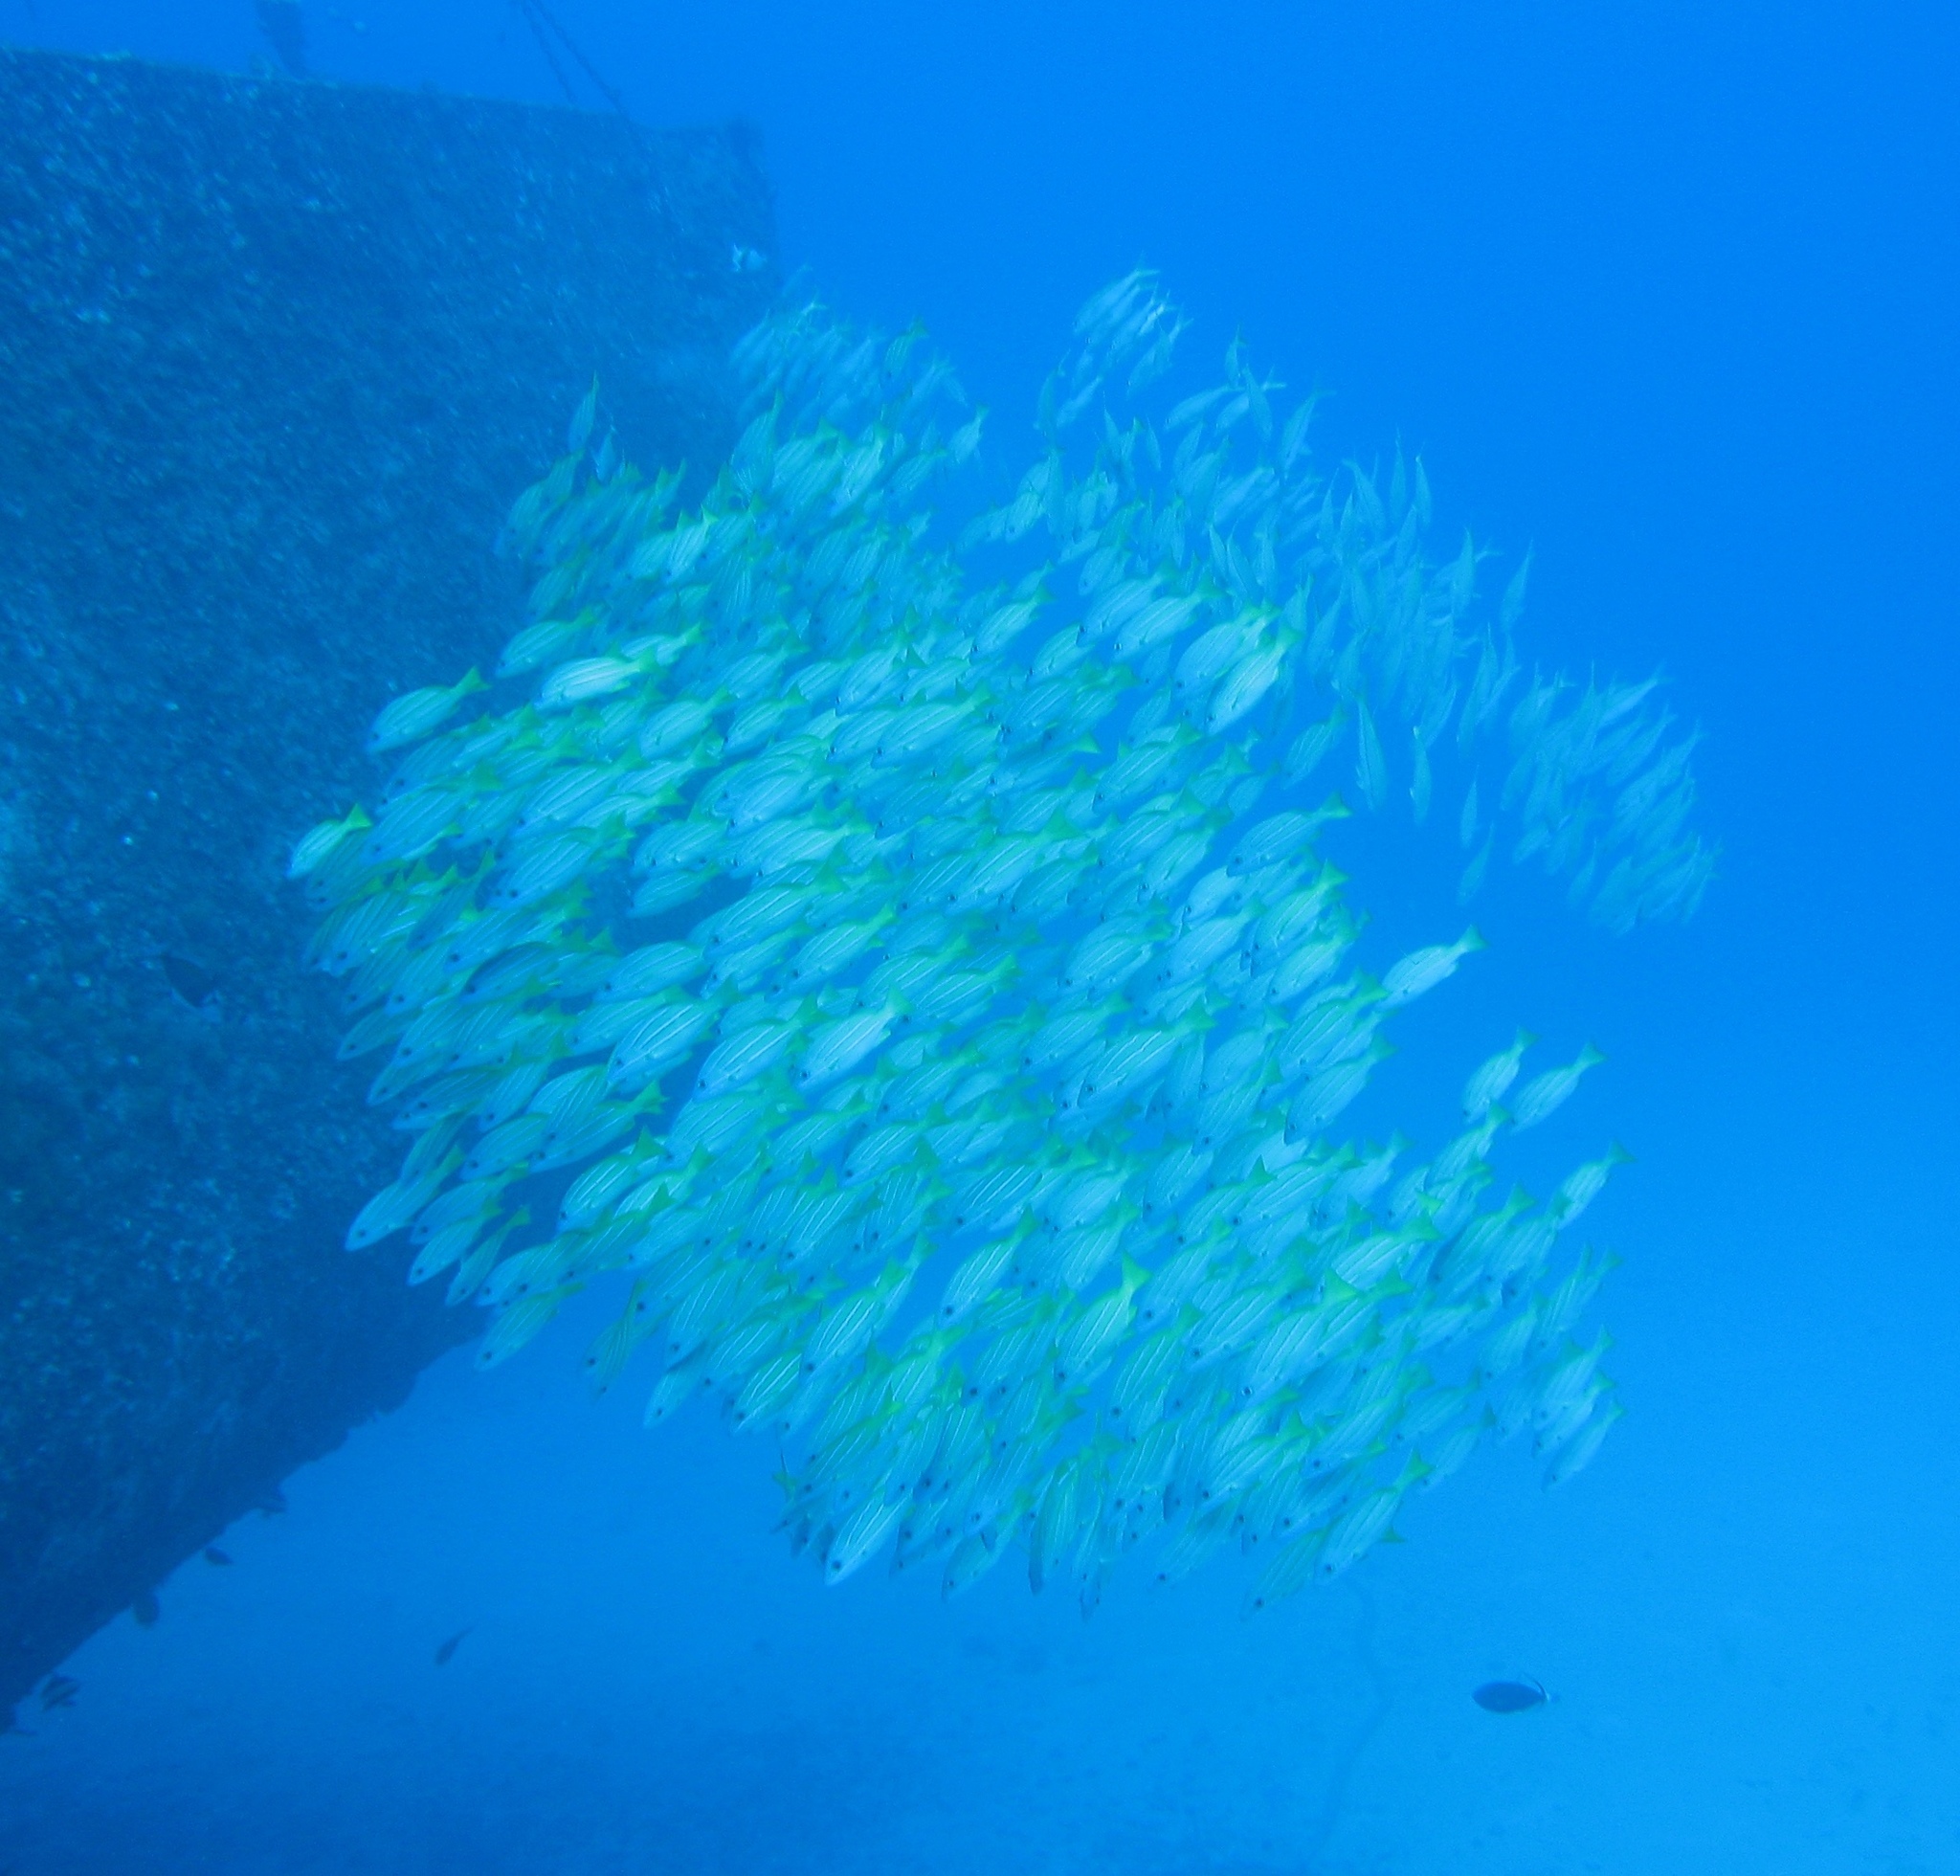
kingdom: Animalia
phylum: Chordata
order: Perciformes
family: Lutjanidae
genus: Lutjanus
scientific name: Lutjanus kasmira
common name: Common bluestripe snapper
